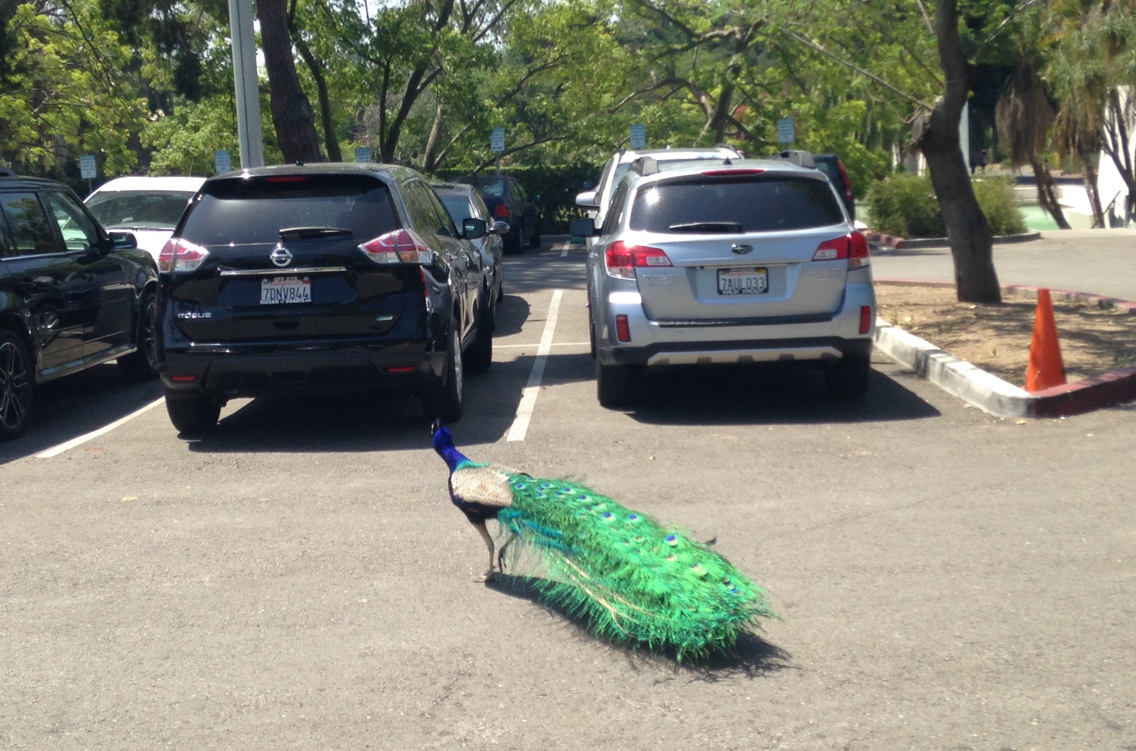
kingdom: Animalia
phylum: Chordata
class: Aves
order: Galliformes
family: Phasianidae
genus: Pavo
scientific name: Pavo cristatus
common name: Indian peafowl
